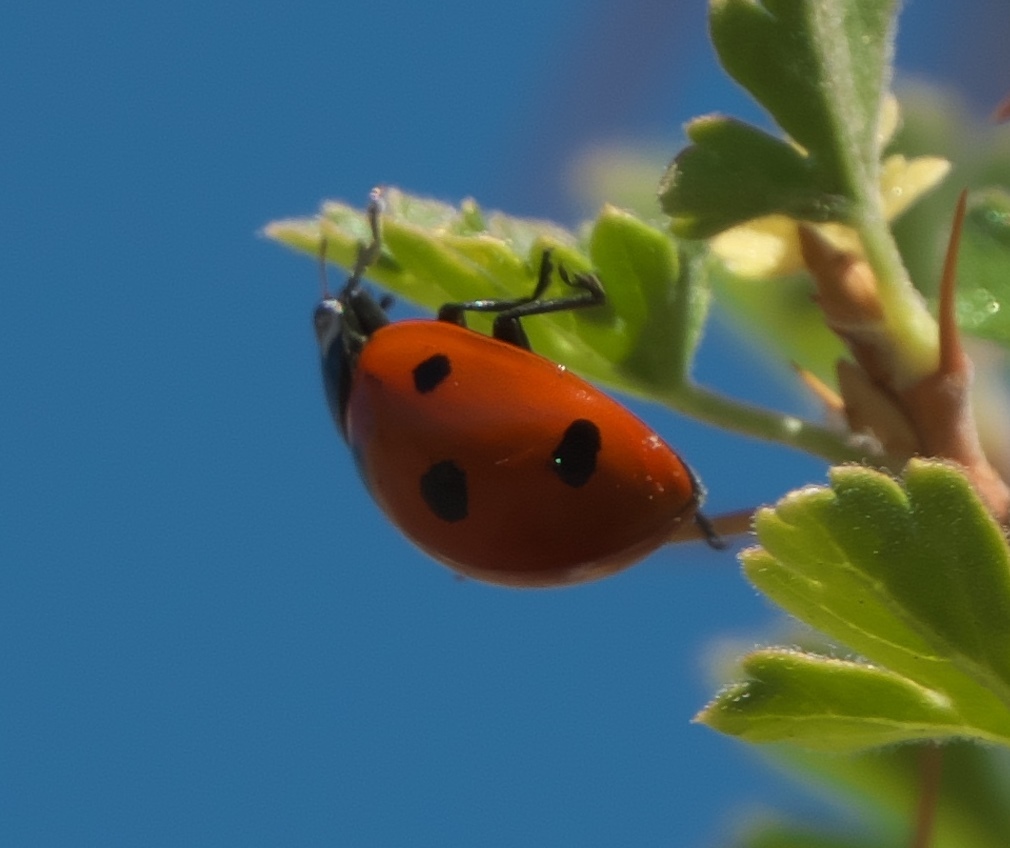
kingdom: Animalia
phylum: Arthropoda
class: Insecta
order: Coleoptera
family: Coccinellidae
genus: Coccinella
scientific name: Coccinella septempunctata
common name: Sevenspotted lady beetle
